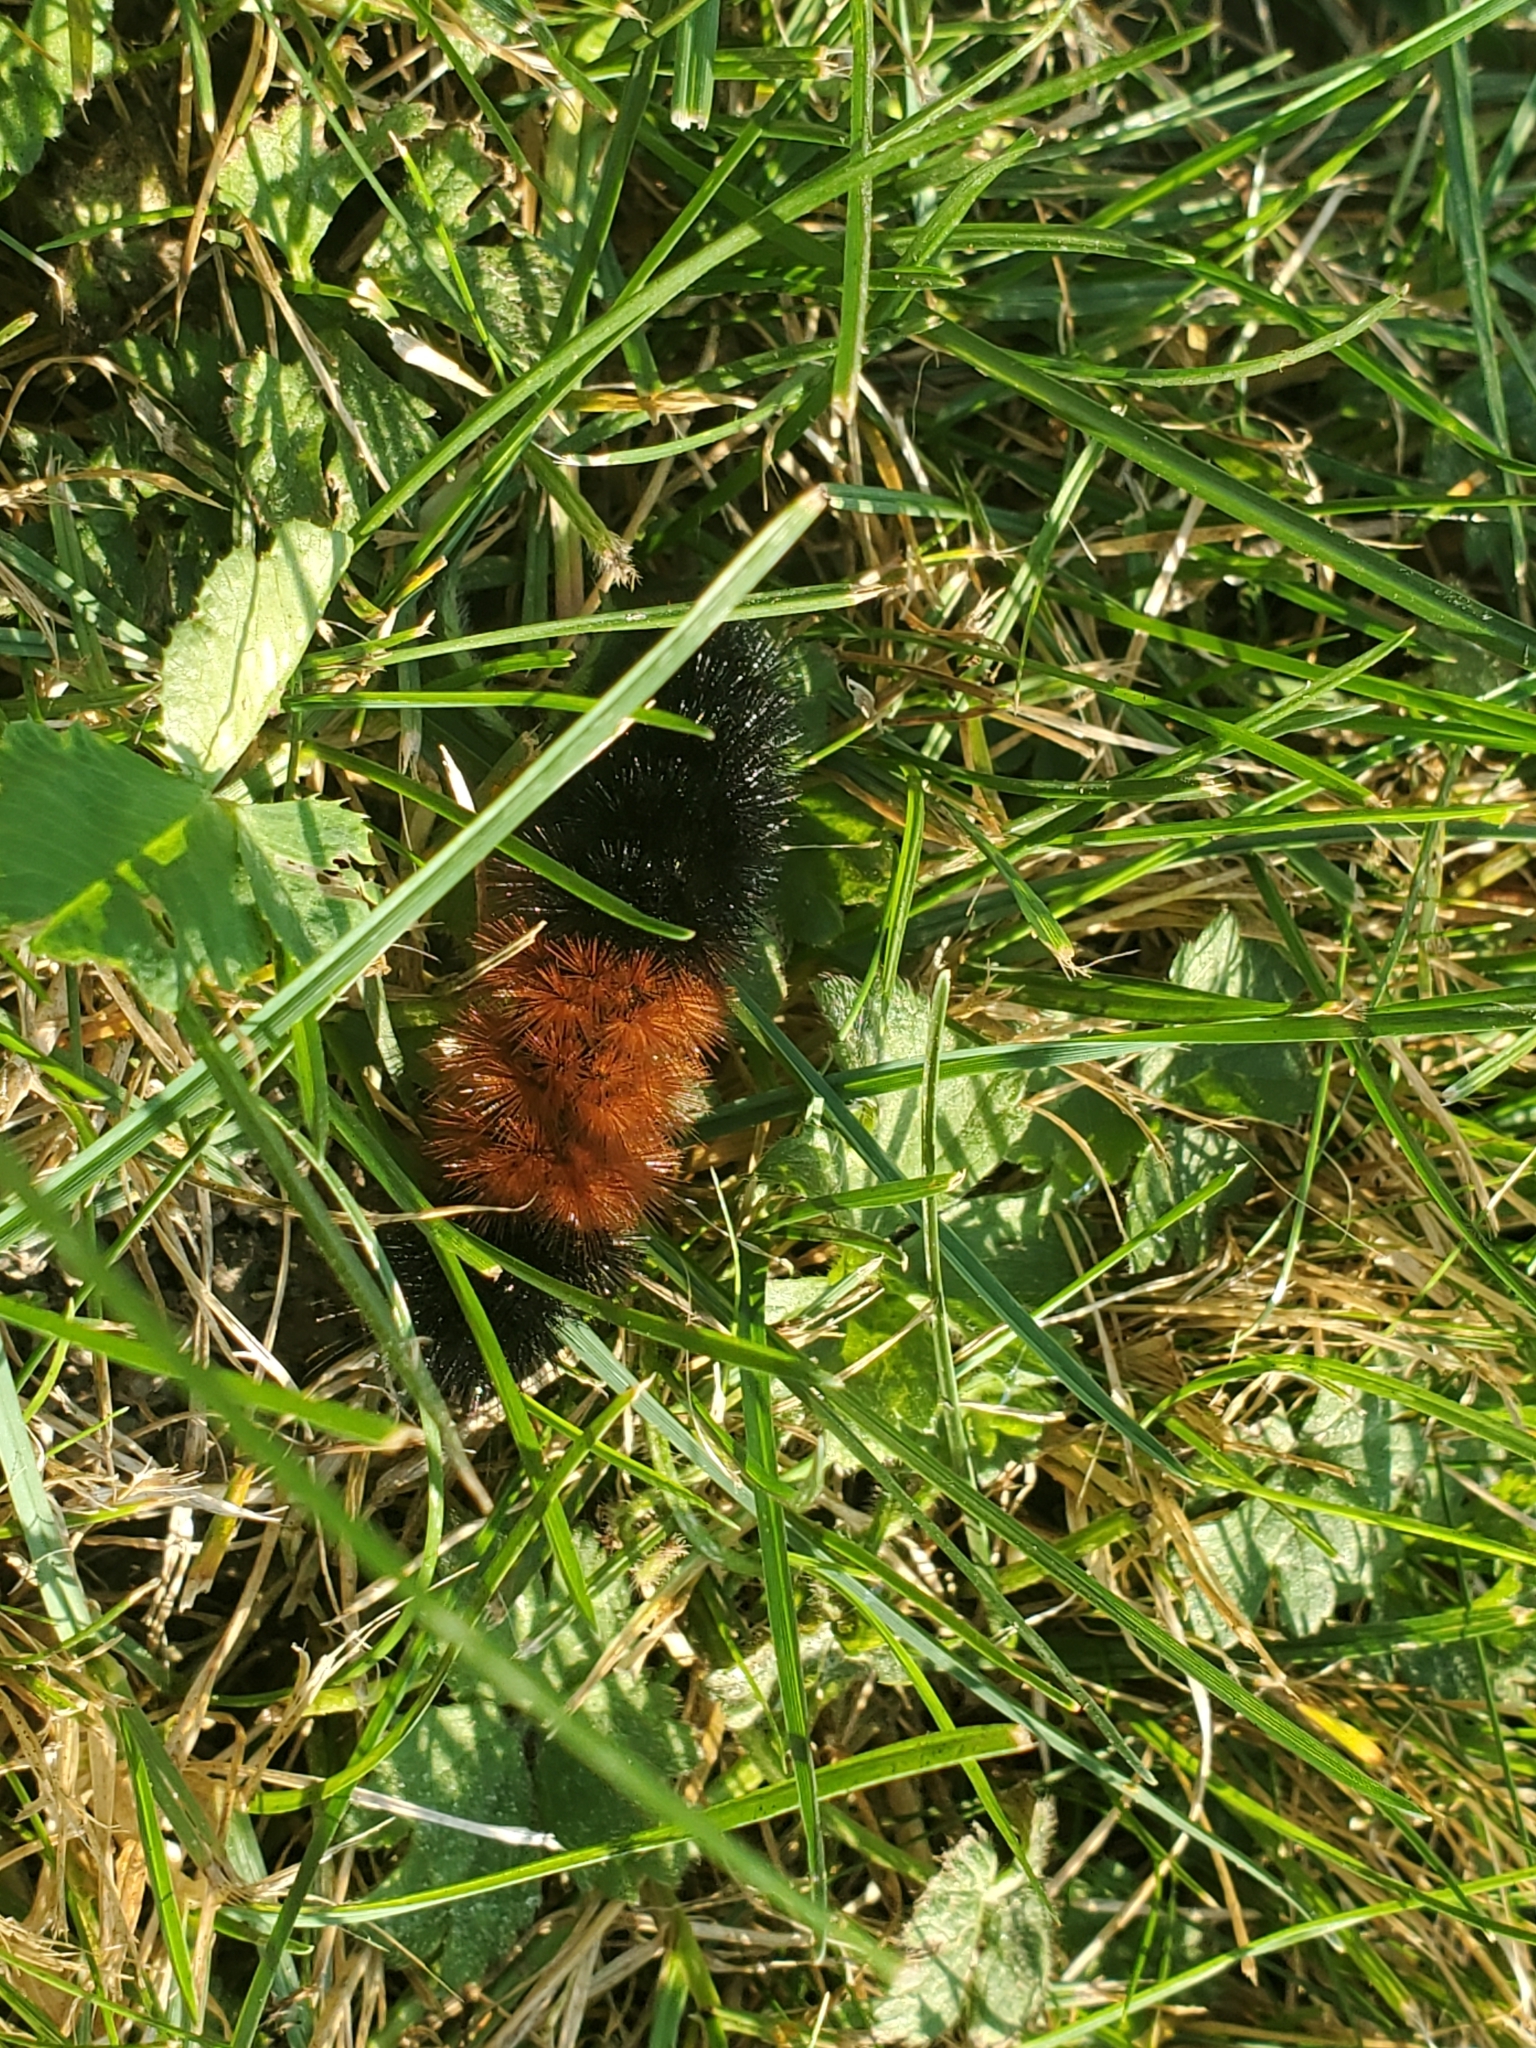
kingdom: Animalia
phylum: Arthropoda
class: Insecta
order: Lepidoptera
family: Erebidae
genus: Pyrrharctia
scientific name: Pyrrharctia isabella
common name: Isabella tiger moth
